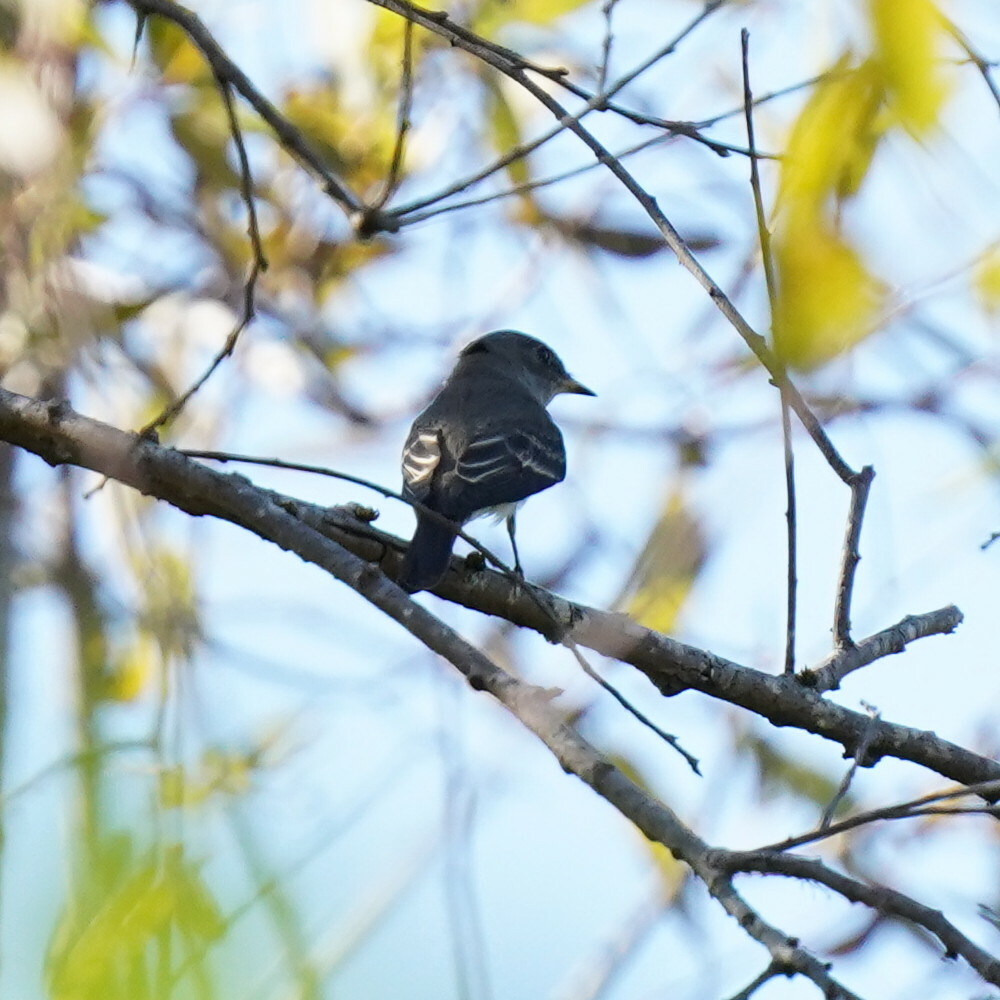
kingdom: Animalia
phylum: Chordata
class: Aves
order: Passeriformes
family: Tyrannidae
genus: Contopus
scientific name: Contopus sordidulus
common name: Western wood-pewee
